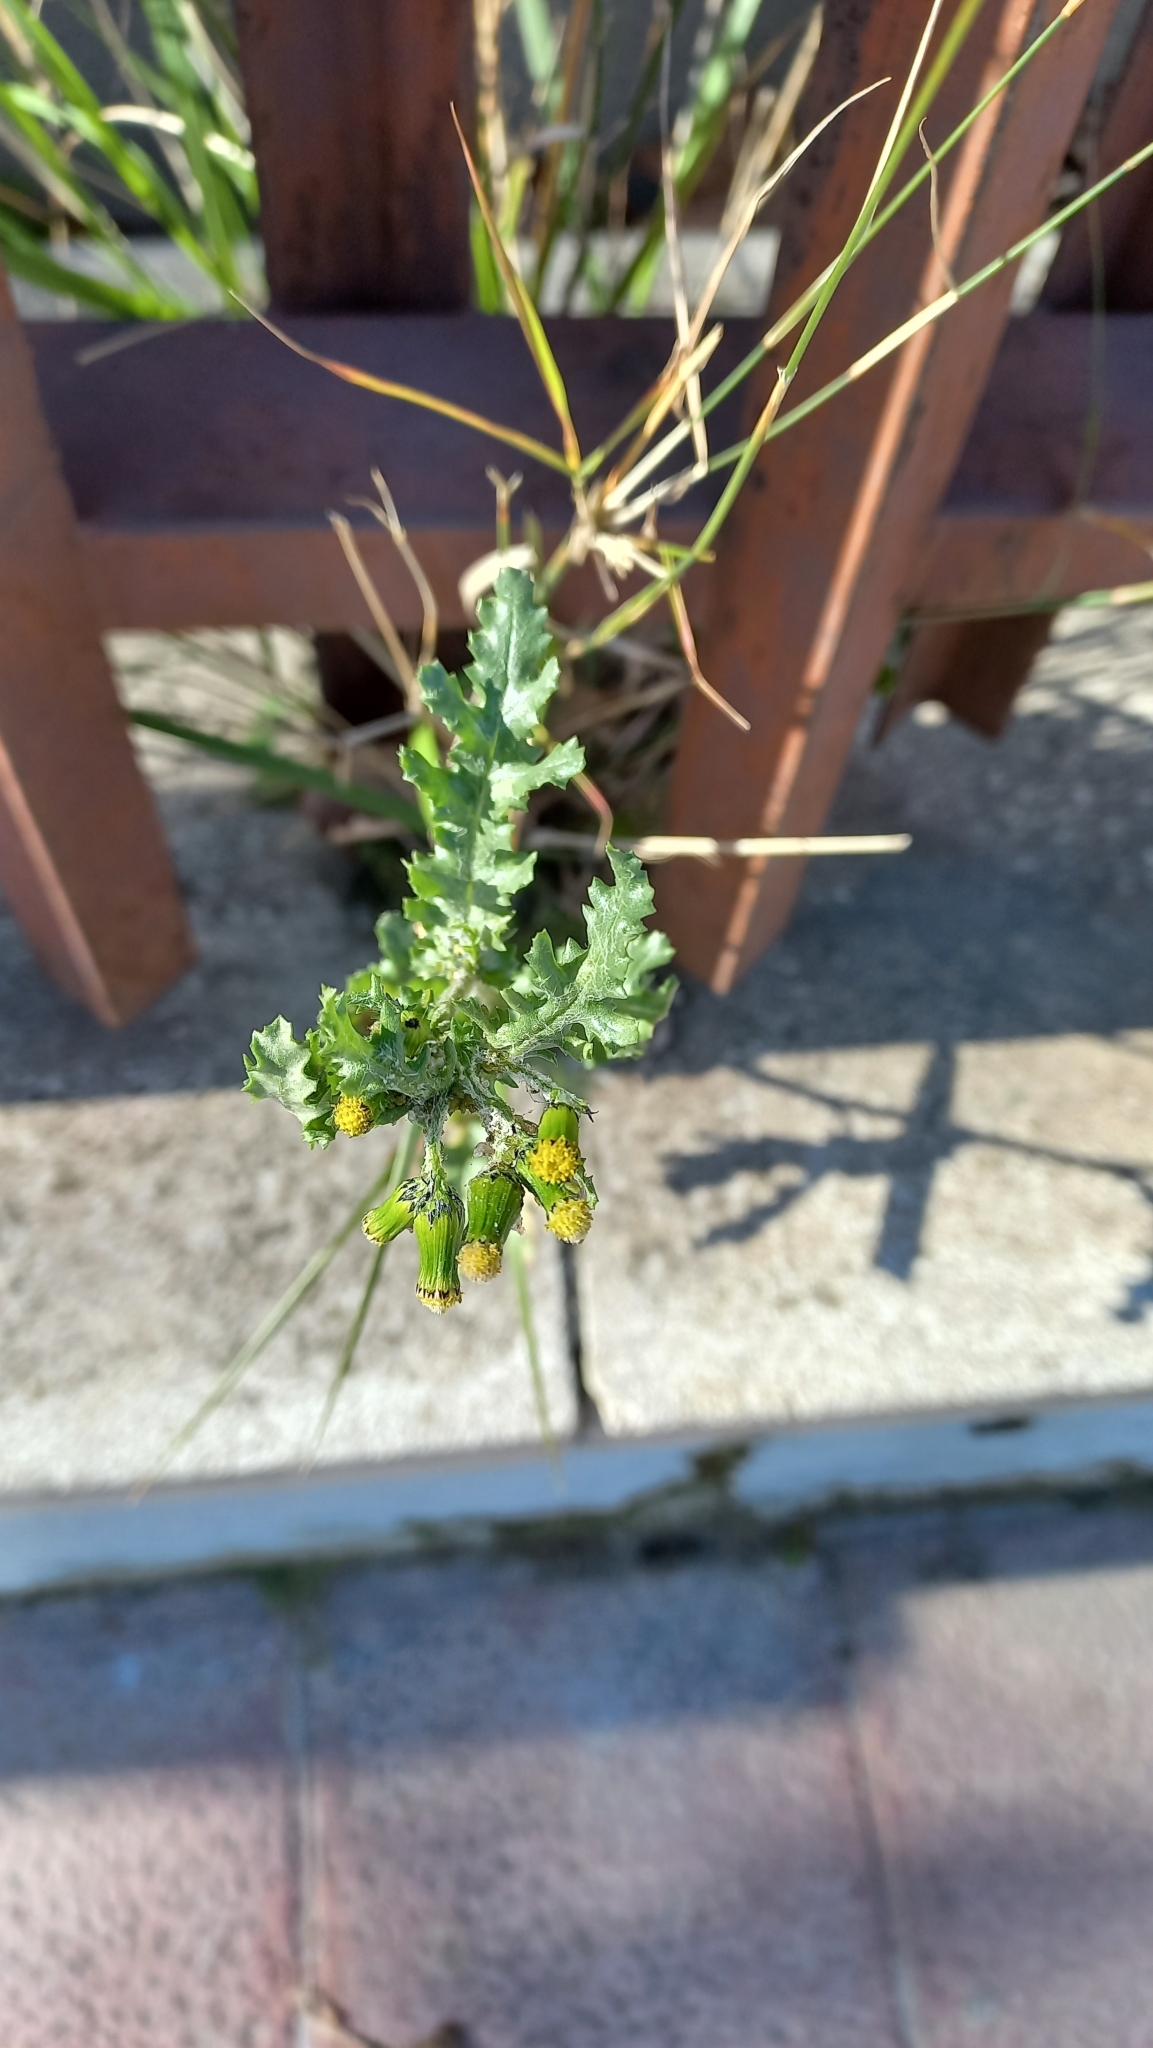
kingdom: Plantae
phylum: Tracheophyta
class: Magnoliopsida
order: Asterales
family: Asteraceae
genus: Senecio
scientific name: Senecio vulgaris
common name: Old-man-in-the-spring
